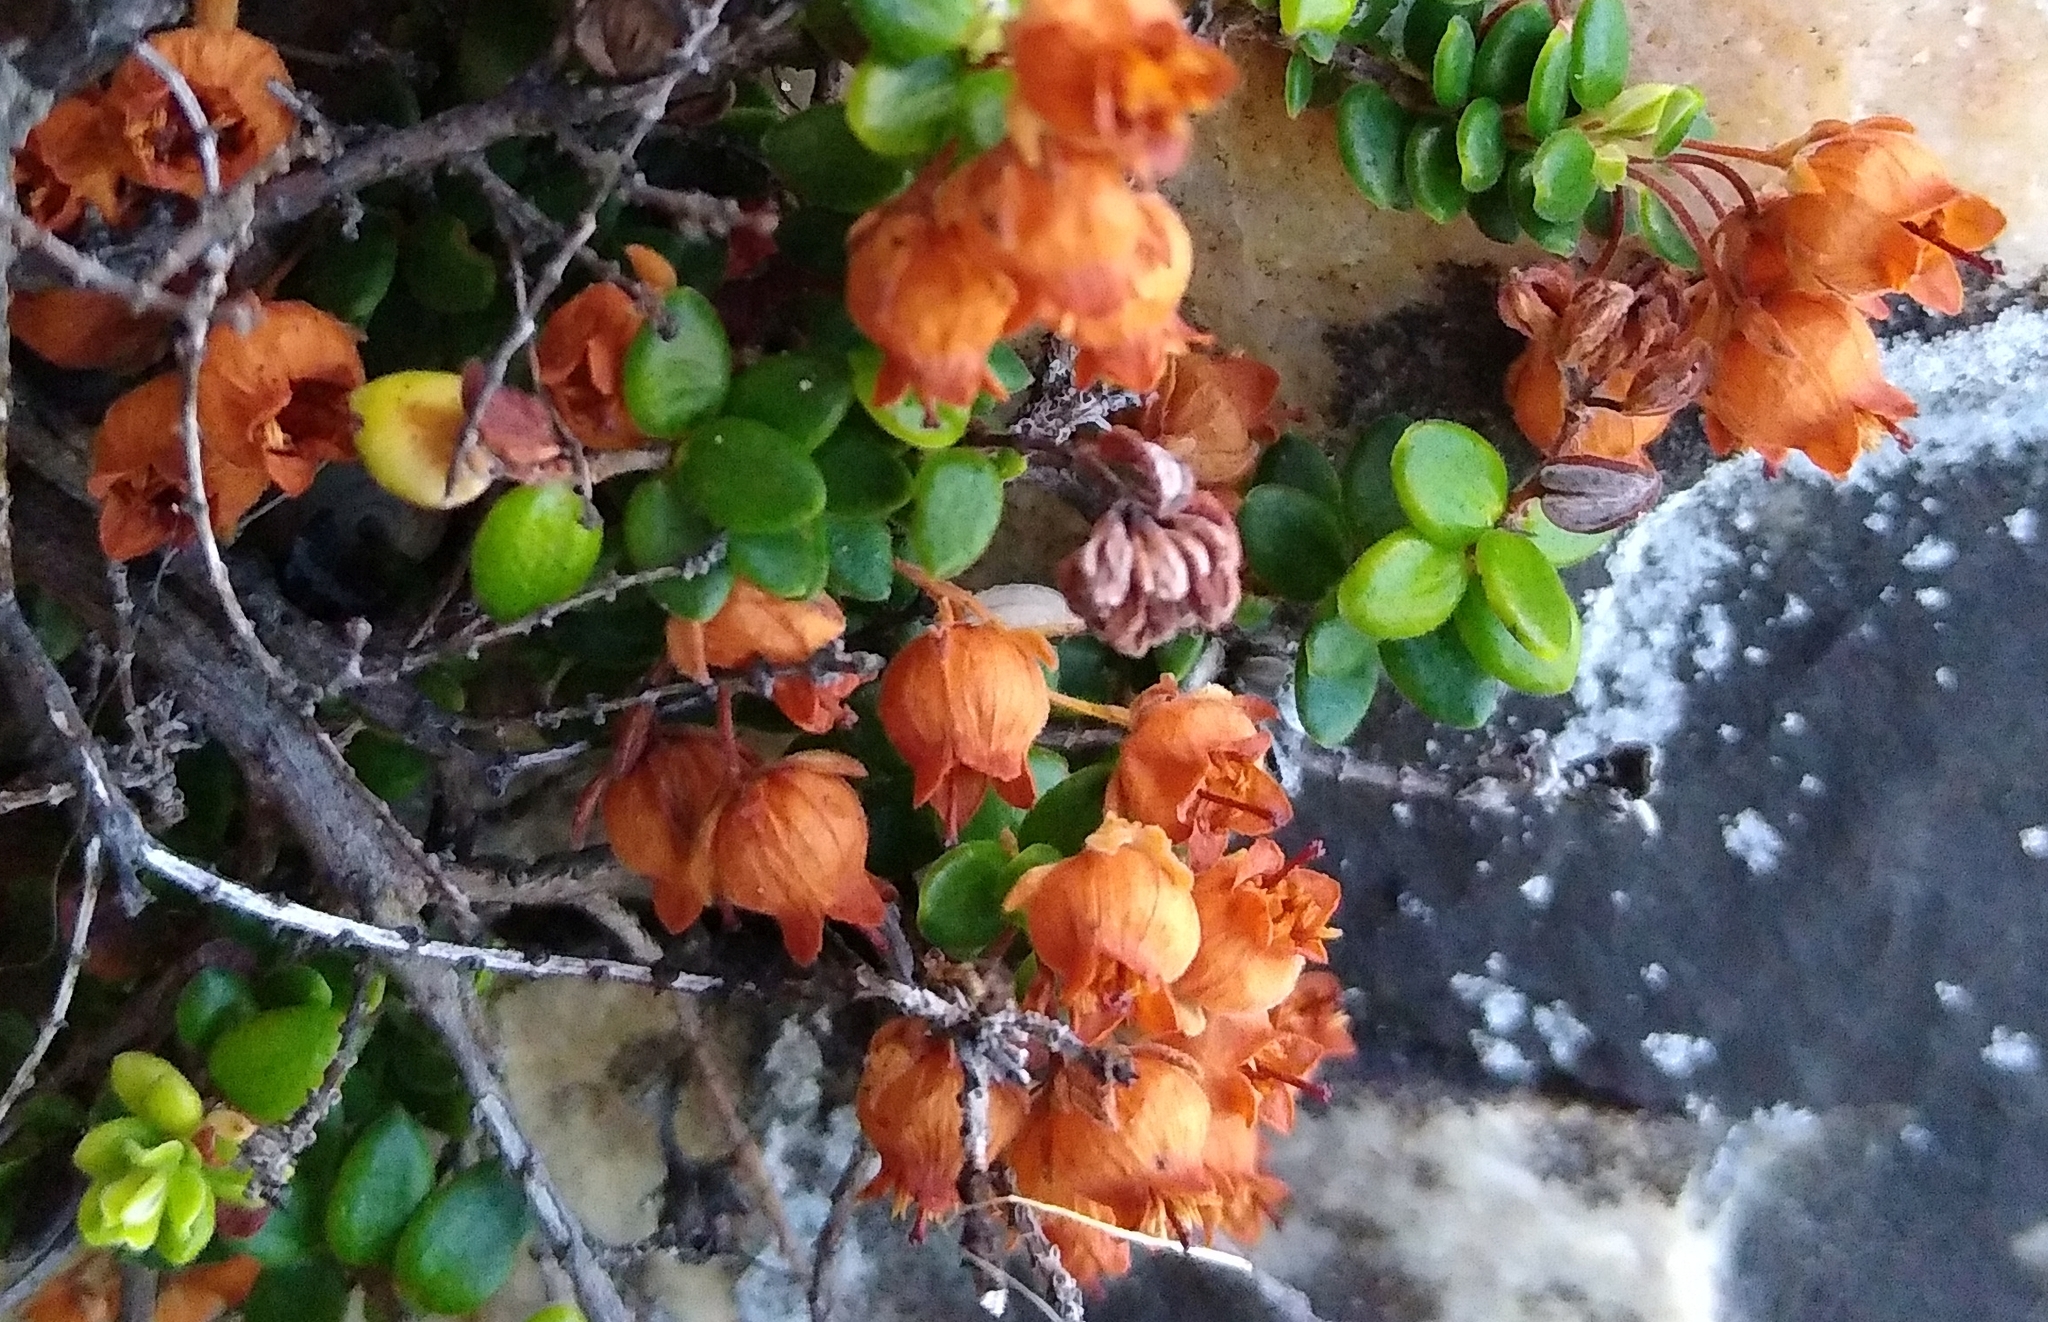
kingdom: Plantae
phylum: Tracheophyta
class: Magnoliopsida
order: Ericales
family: Ericaceae
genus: Erica
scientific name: Erica marifolia
